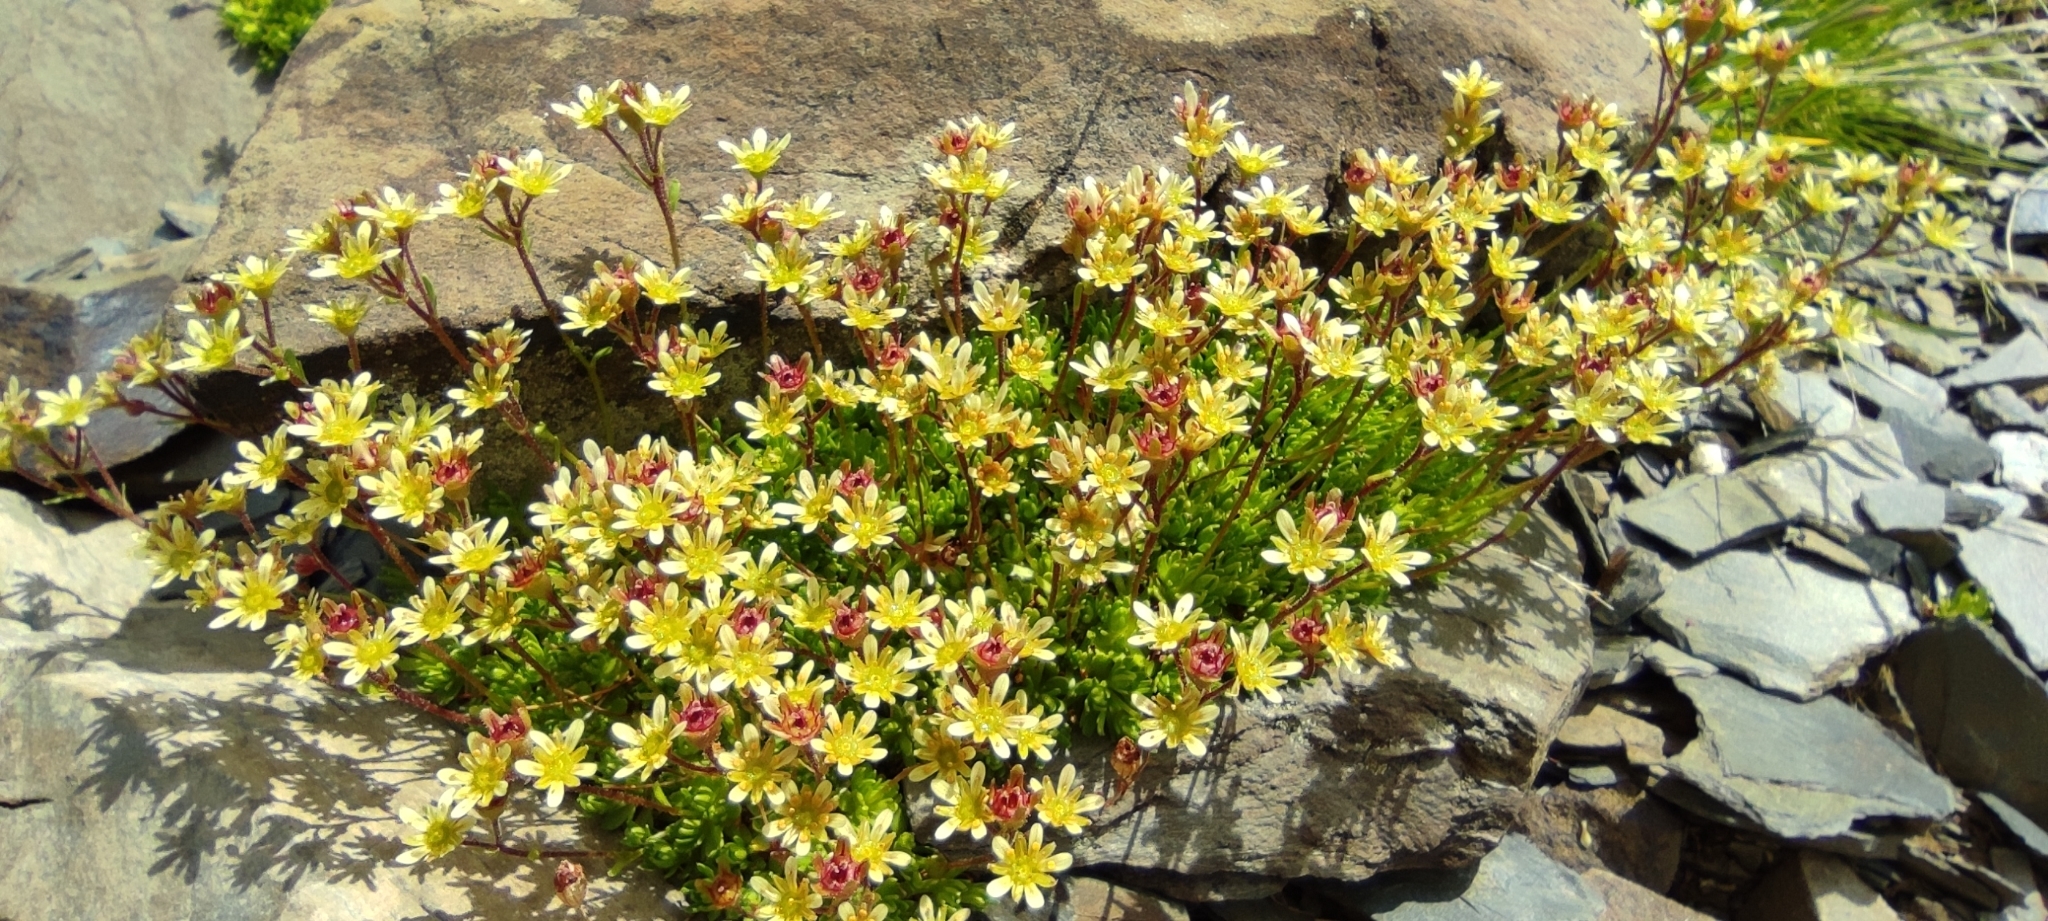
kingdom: Plantae
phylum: Tracheophyta
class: Magnoliopsida
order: Saxifragales
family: Saxifragaceae
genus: Saxifraga
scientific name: Saxifraga moschata
